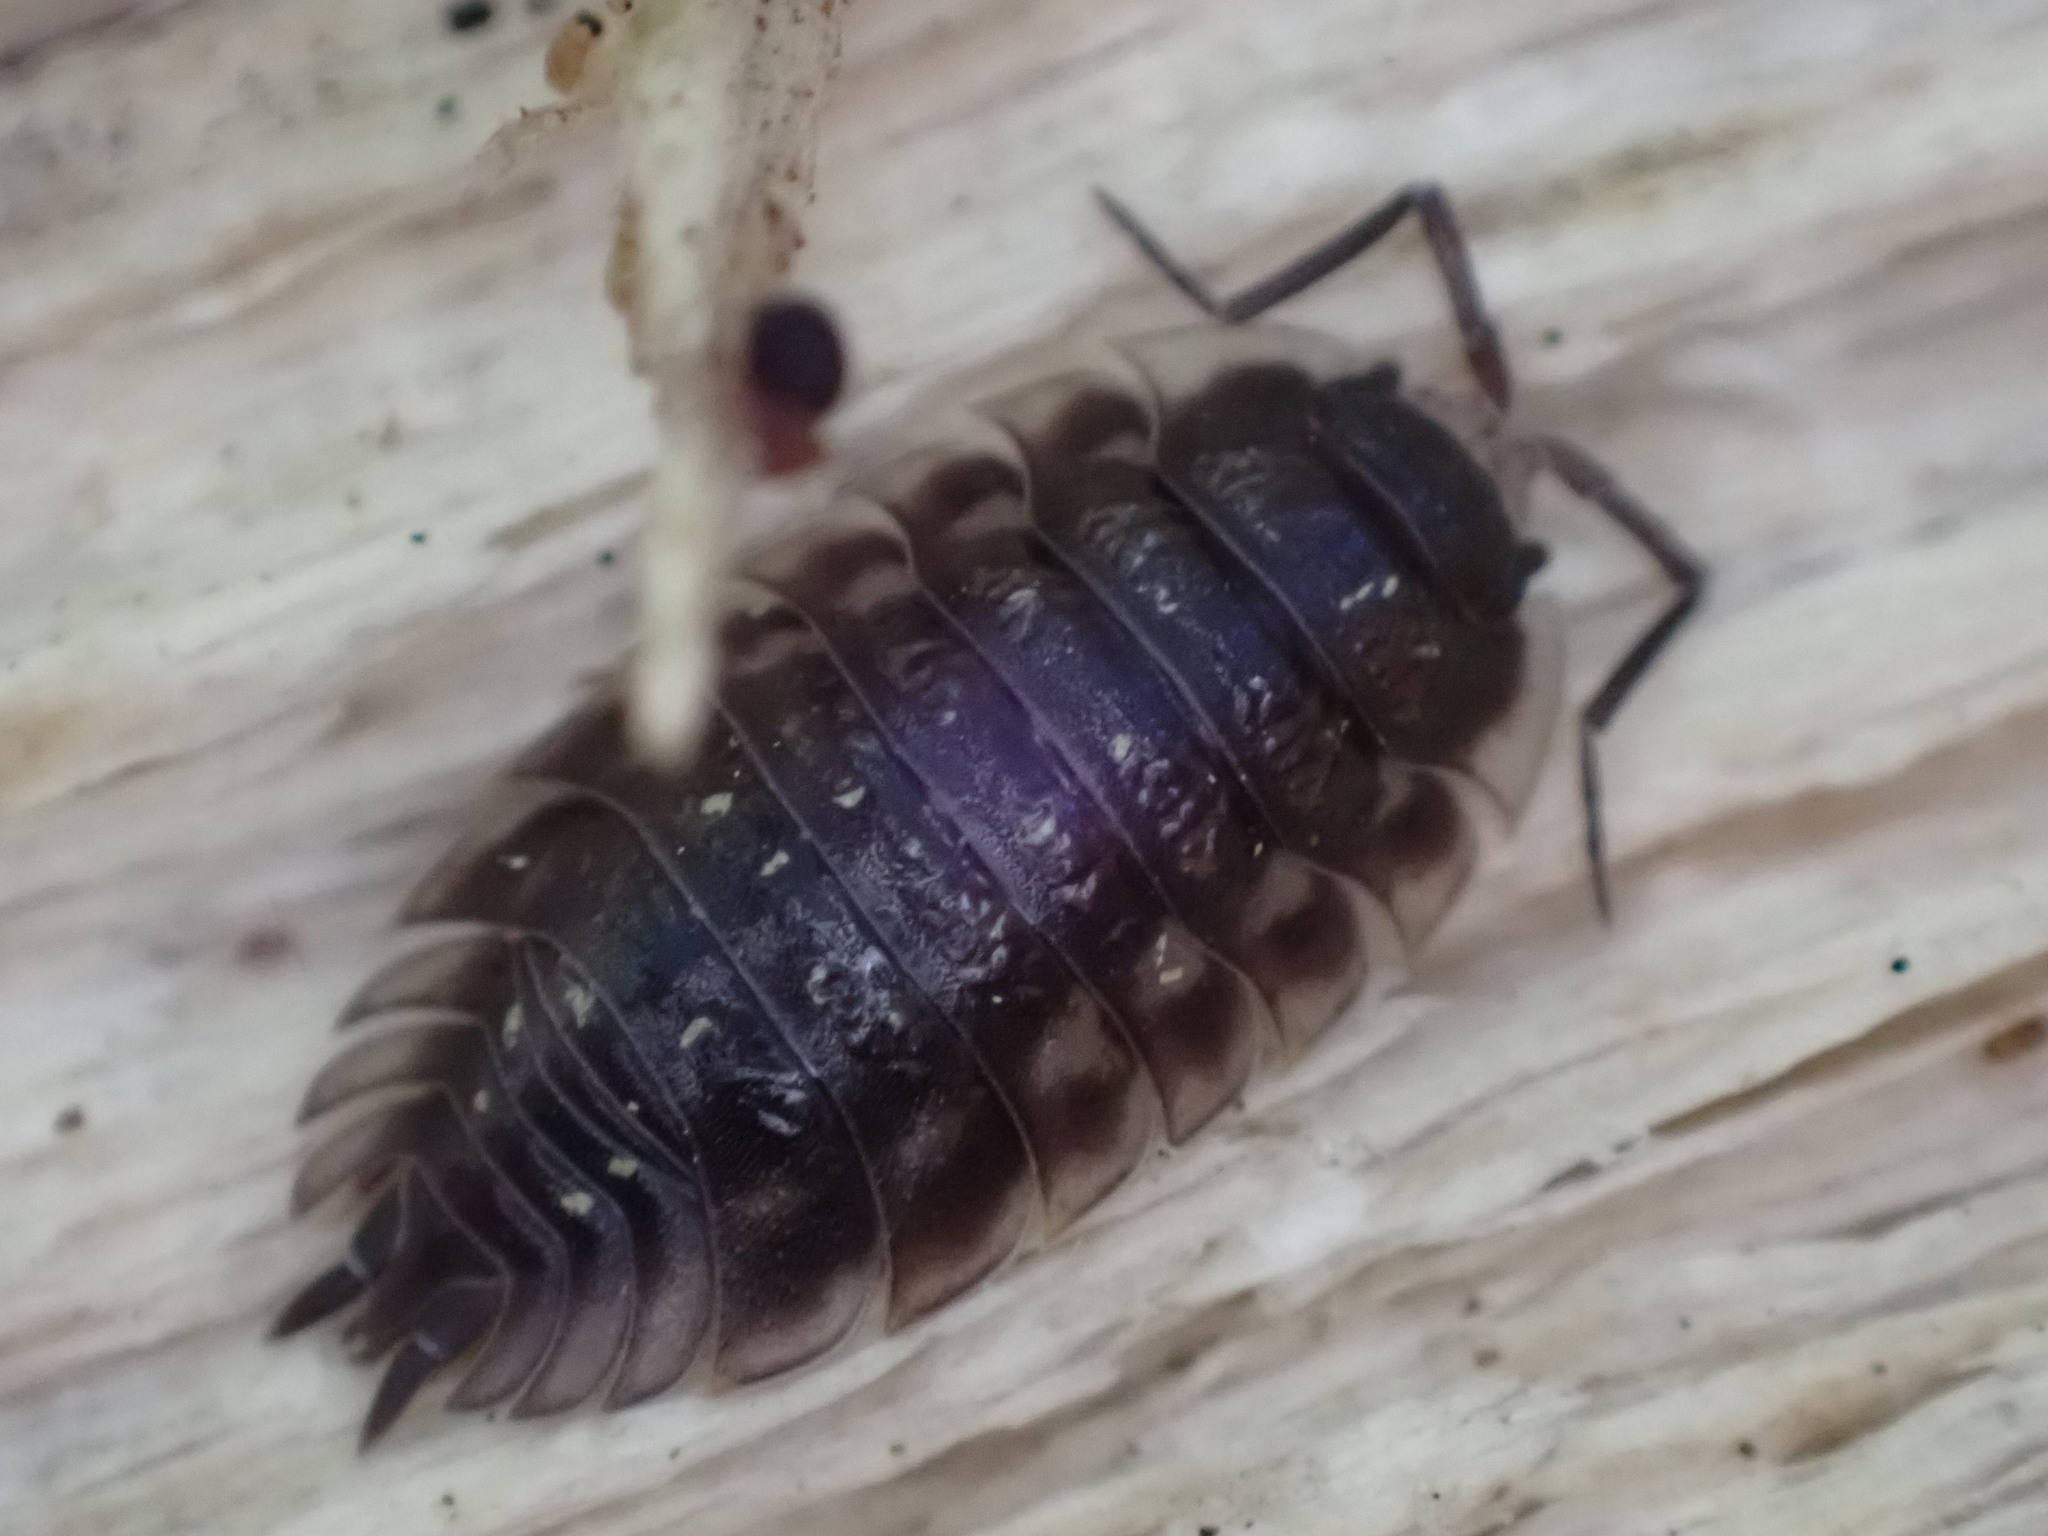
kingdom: Animalia
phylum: Arthropoda
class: Malacostraca
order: Isopoda
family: Oniscidae
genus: Oniscus
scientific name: Oniscus asellus
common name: Common shiny woodlouse
